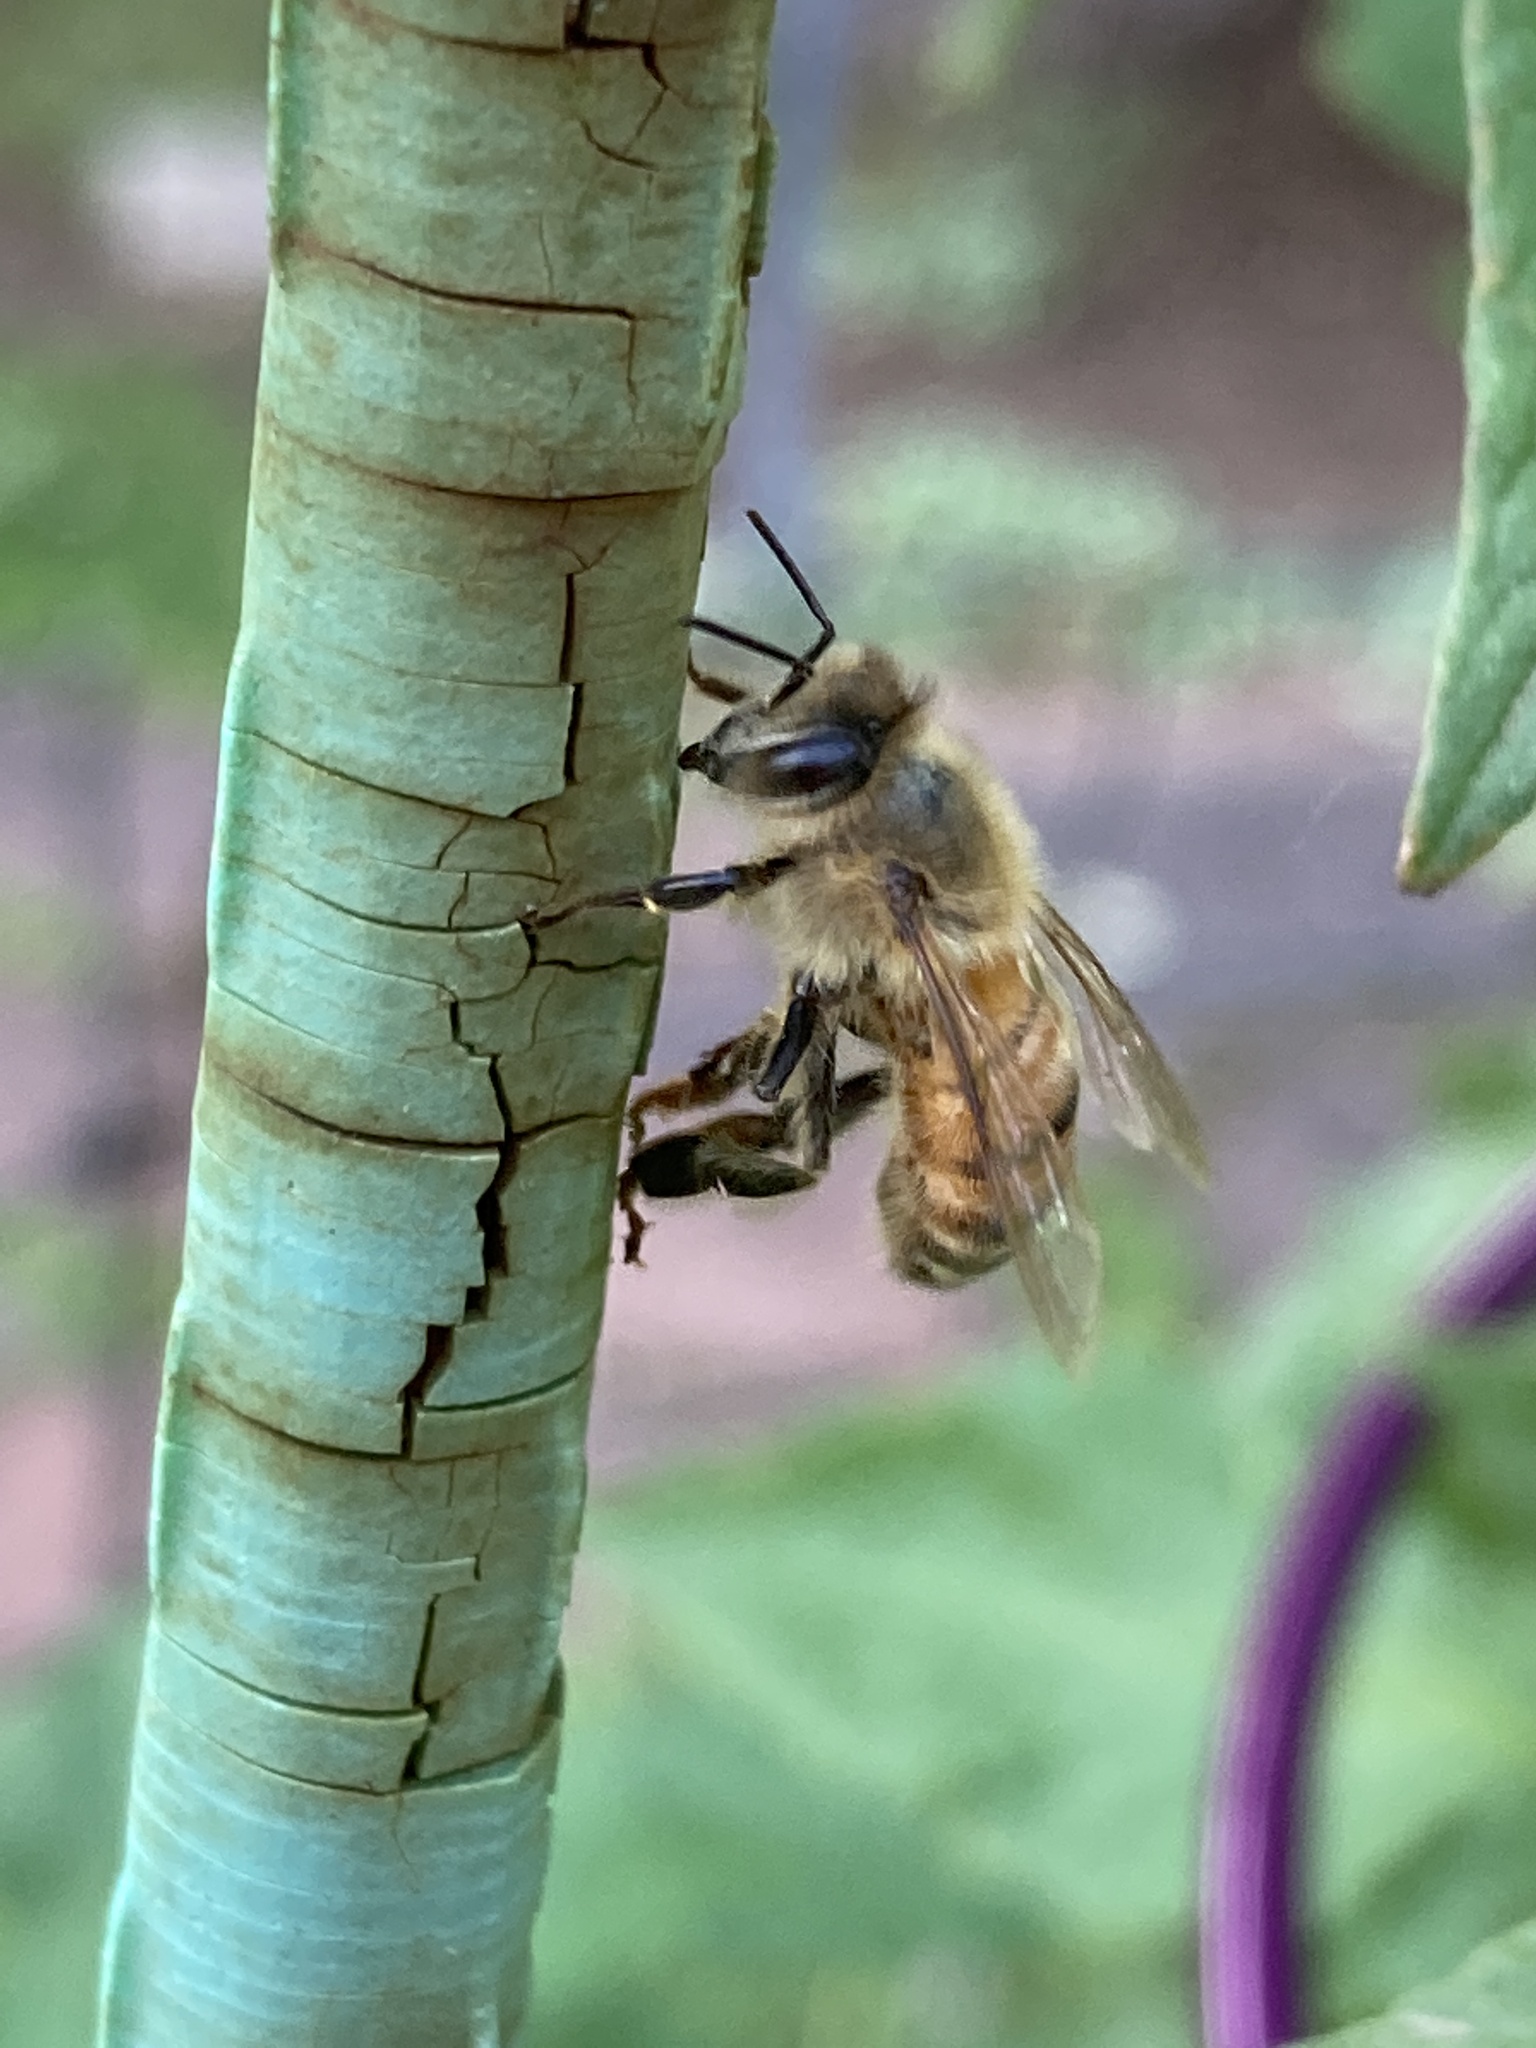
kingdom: Animalia
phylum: Arthropoda
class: Insecta
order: Hymenoptera
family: Apidae
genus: Apis
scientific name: Apis mellifera
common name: Honey bee
